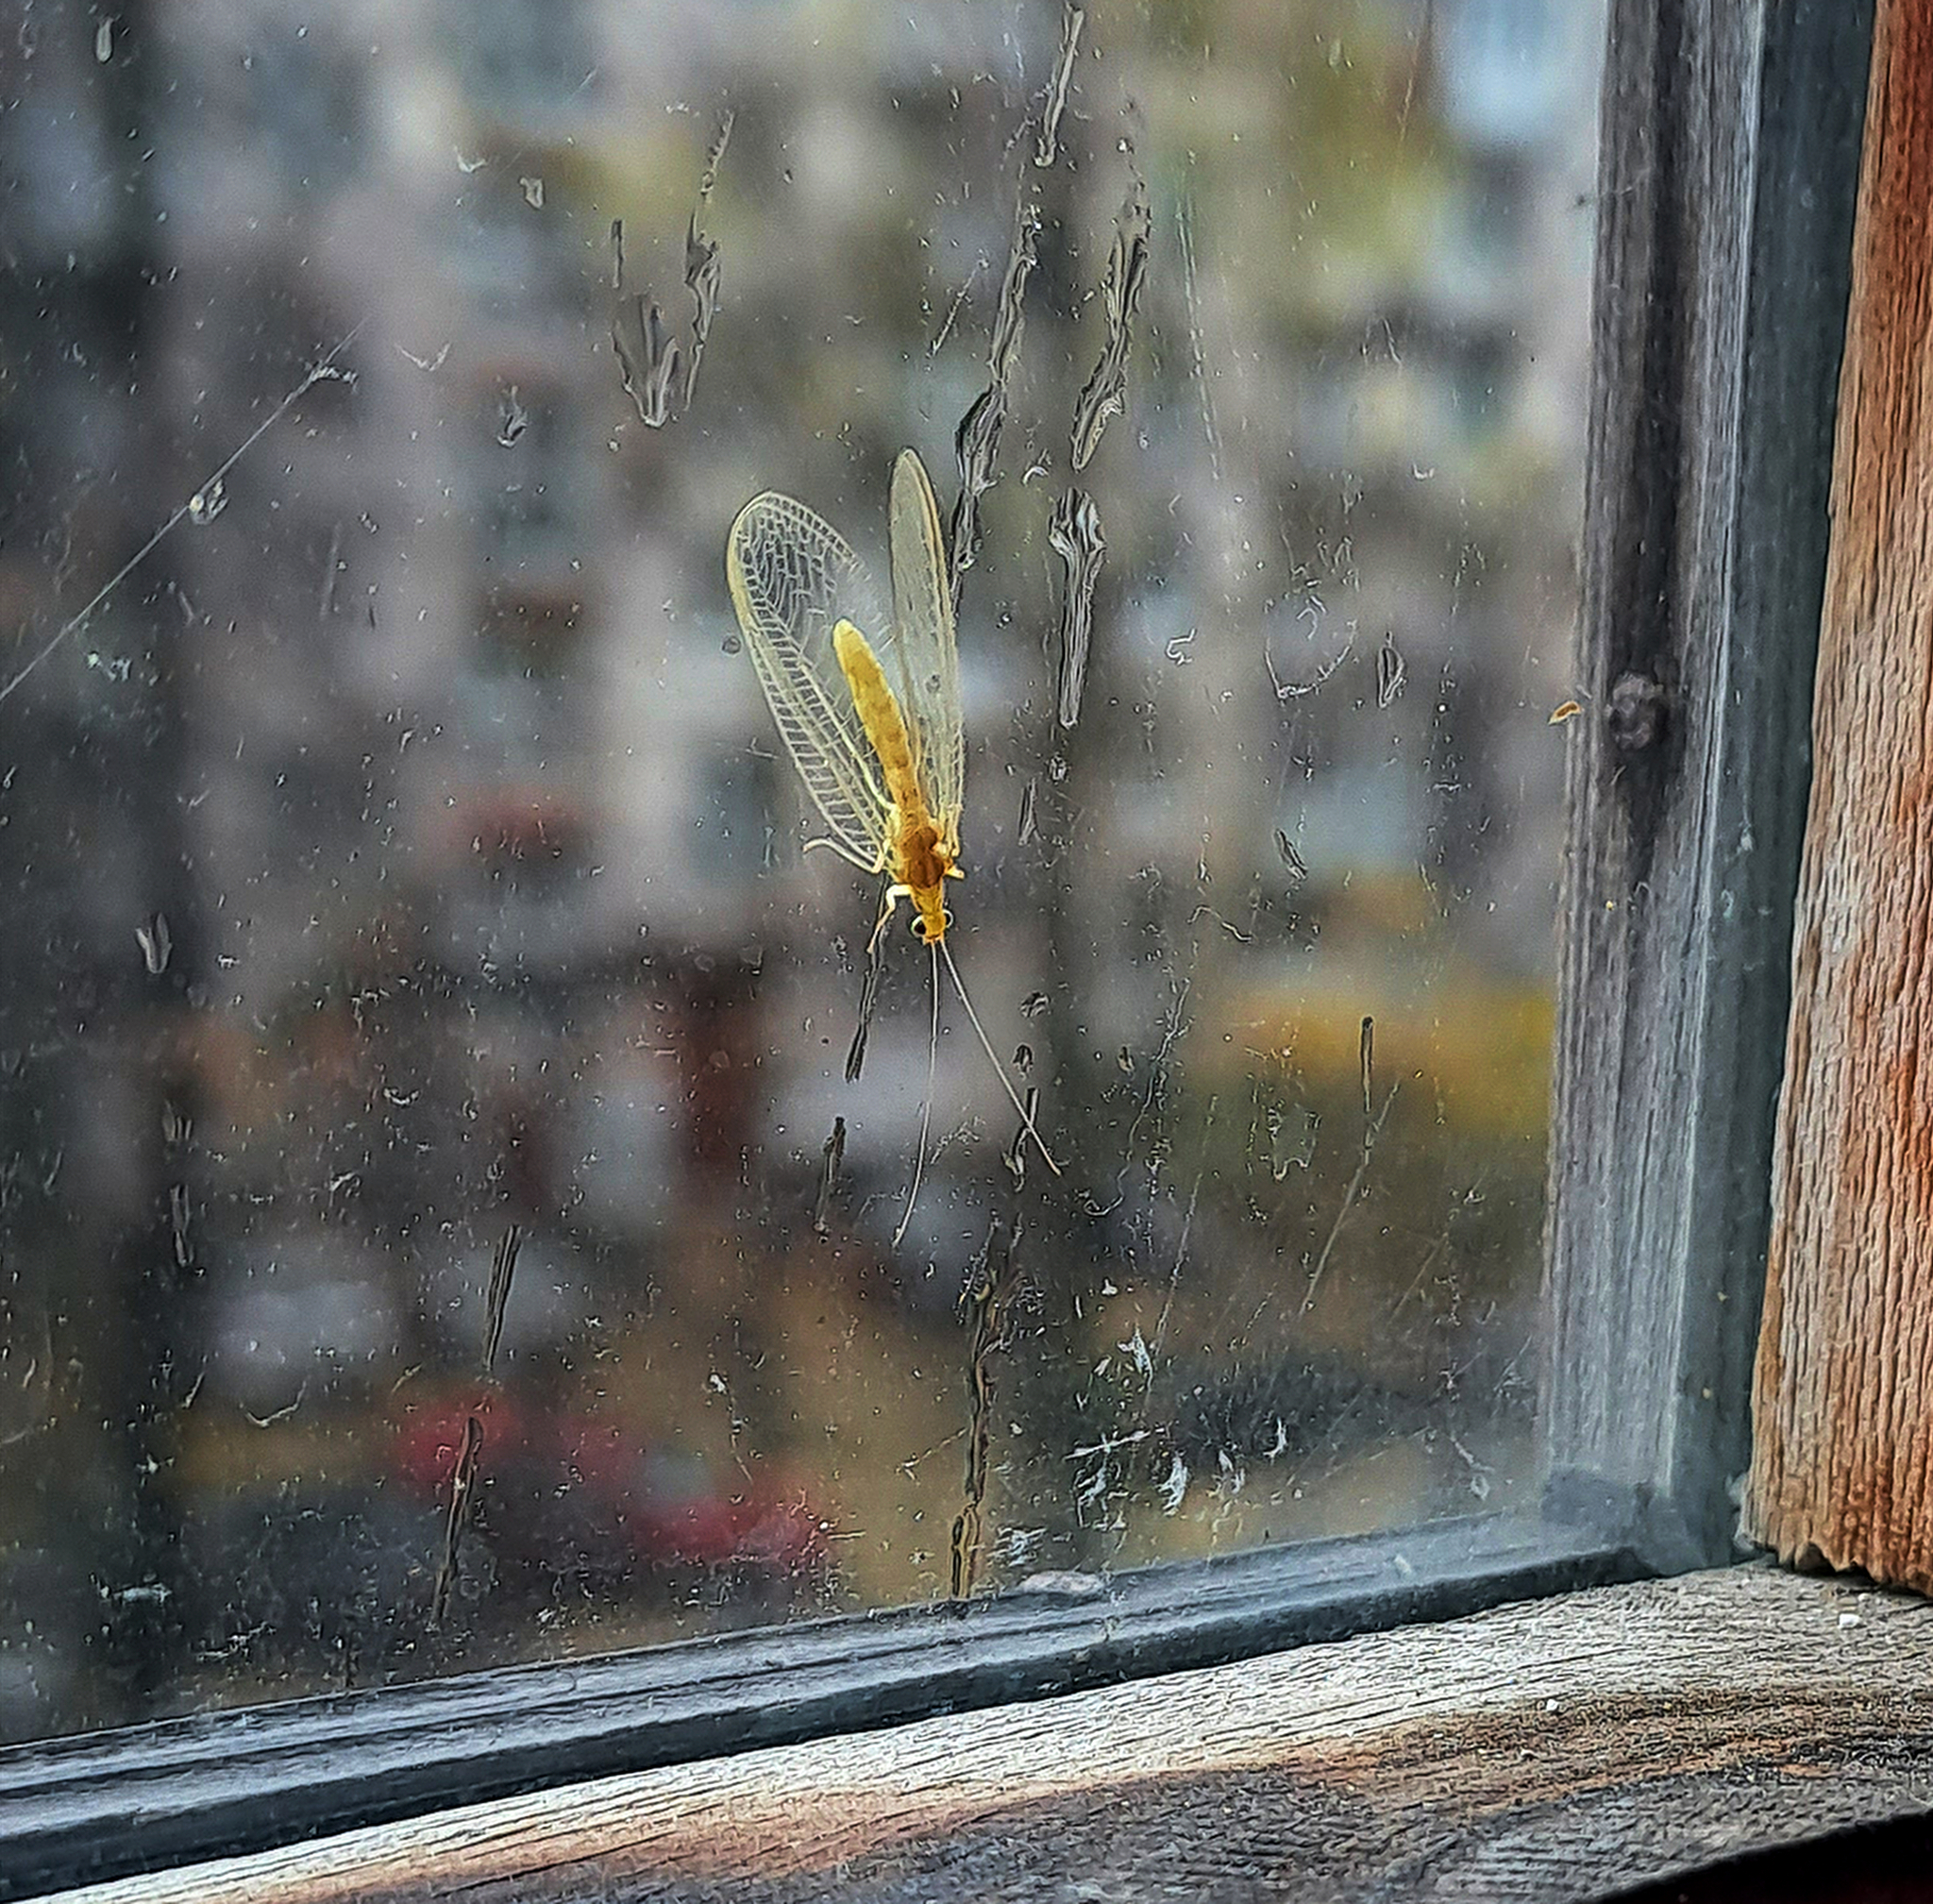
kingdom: Animalia
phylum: Arthropoda
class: Insecta
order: Neuroptera
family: Chrysopidae
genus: Chrysoperla
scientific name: Chrysoperla
